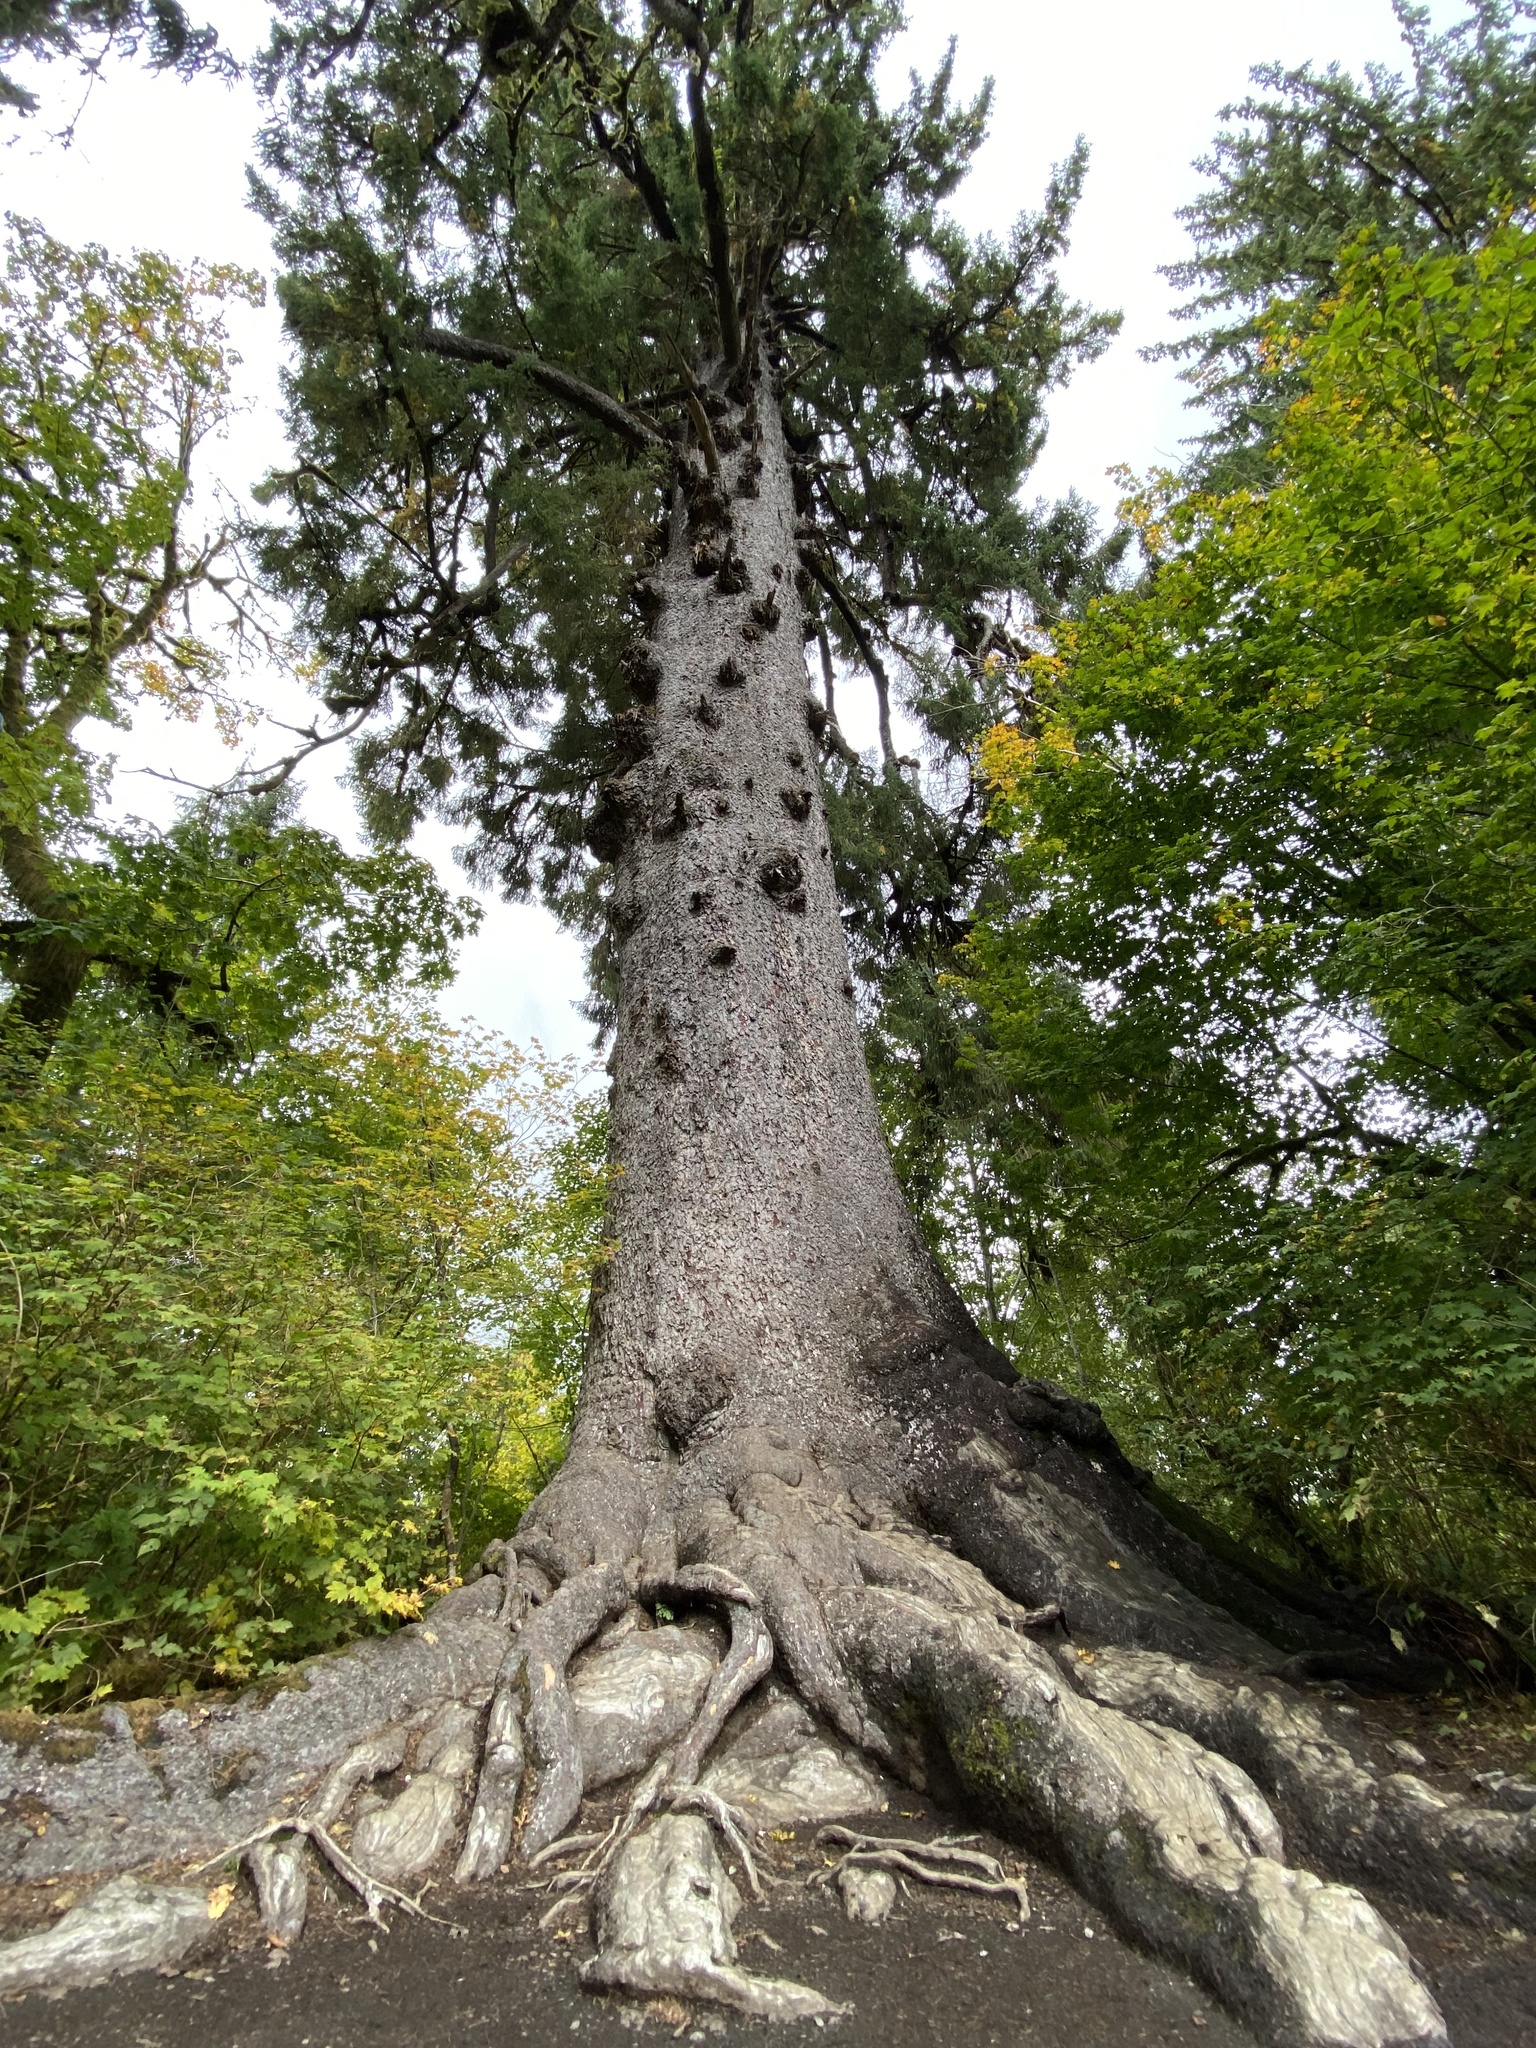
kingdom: Plantae
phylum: Tracheophyta
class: Pinopsida
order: Pinales
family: Pinaceae
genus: Picea
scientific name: Picea sitchensis
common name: Sitka spruce
